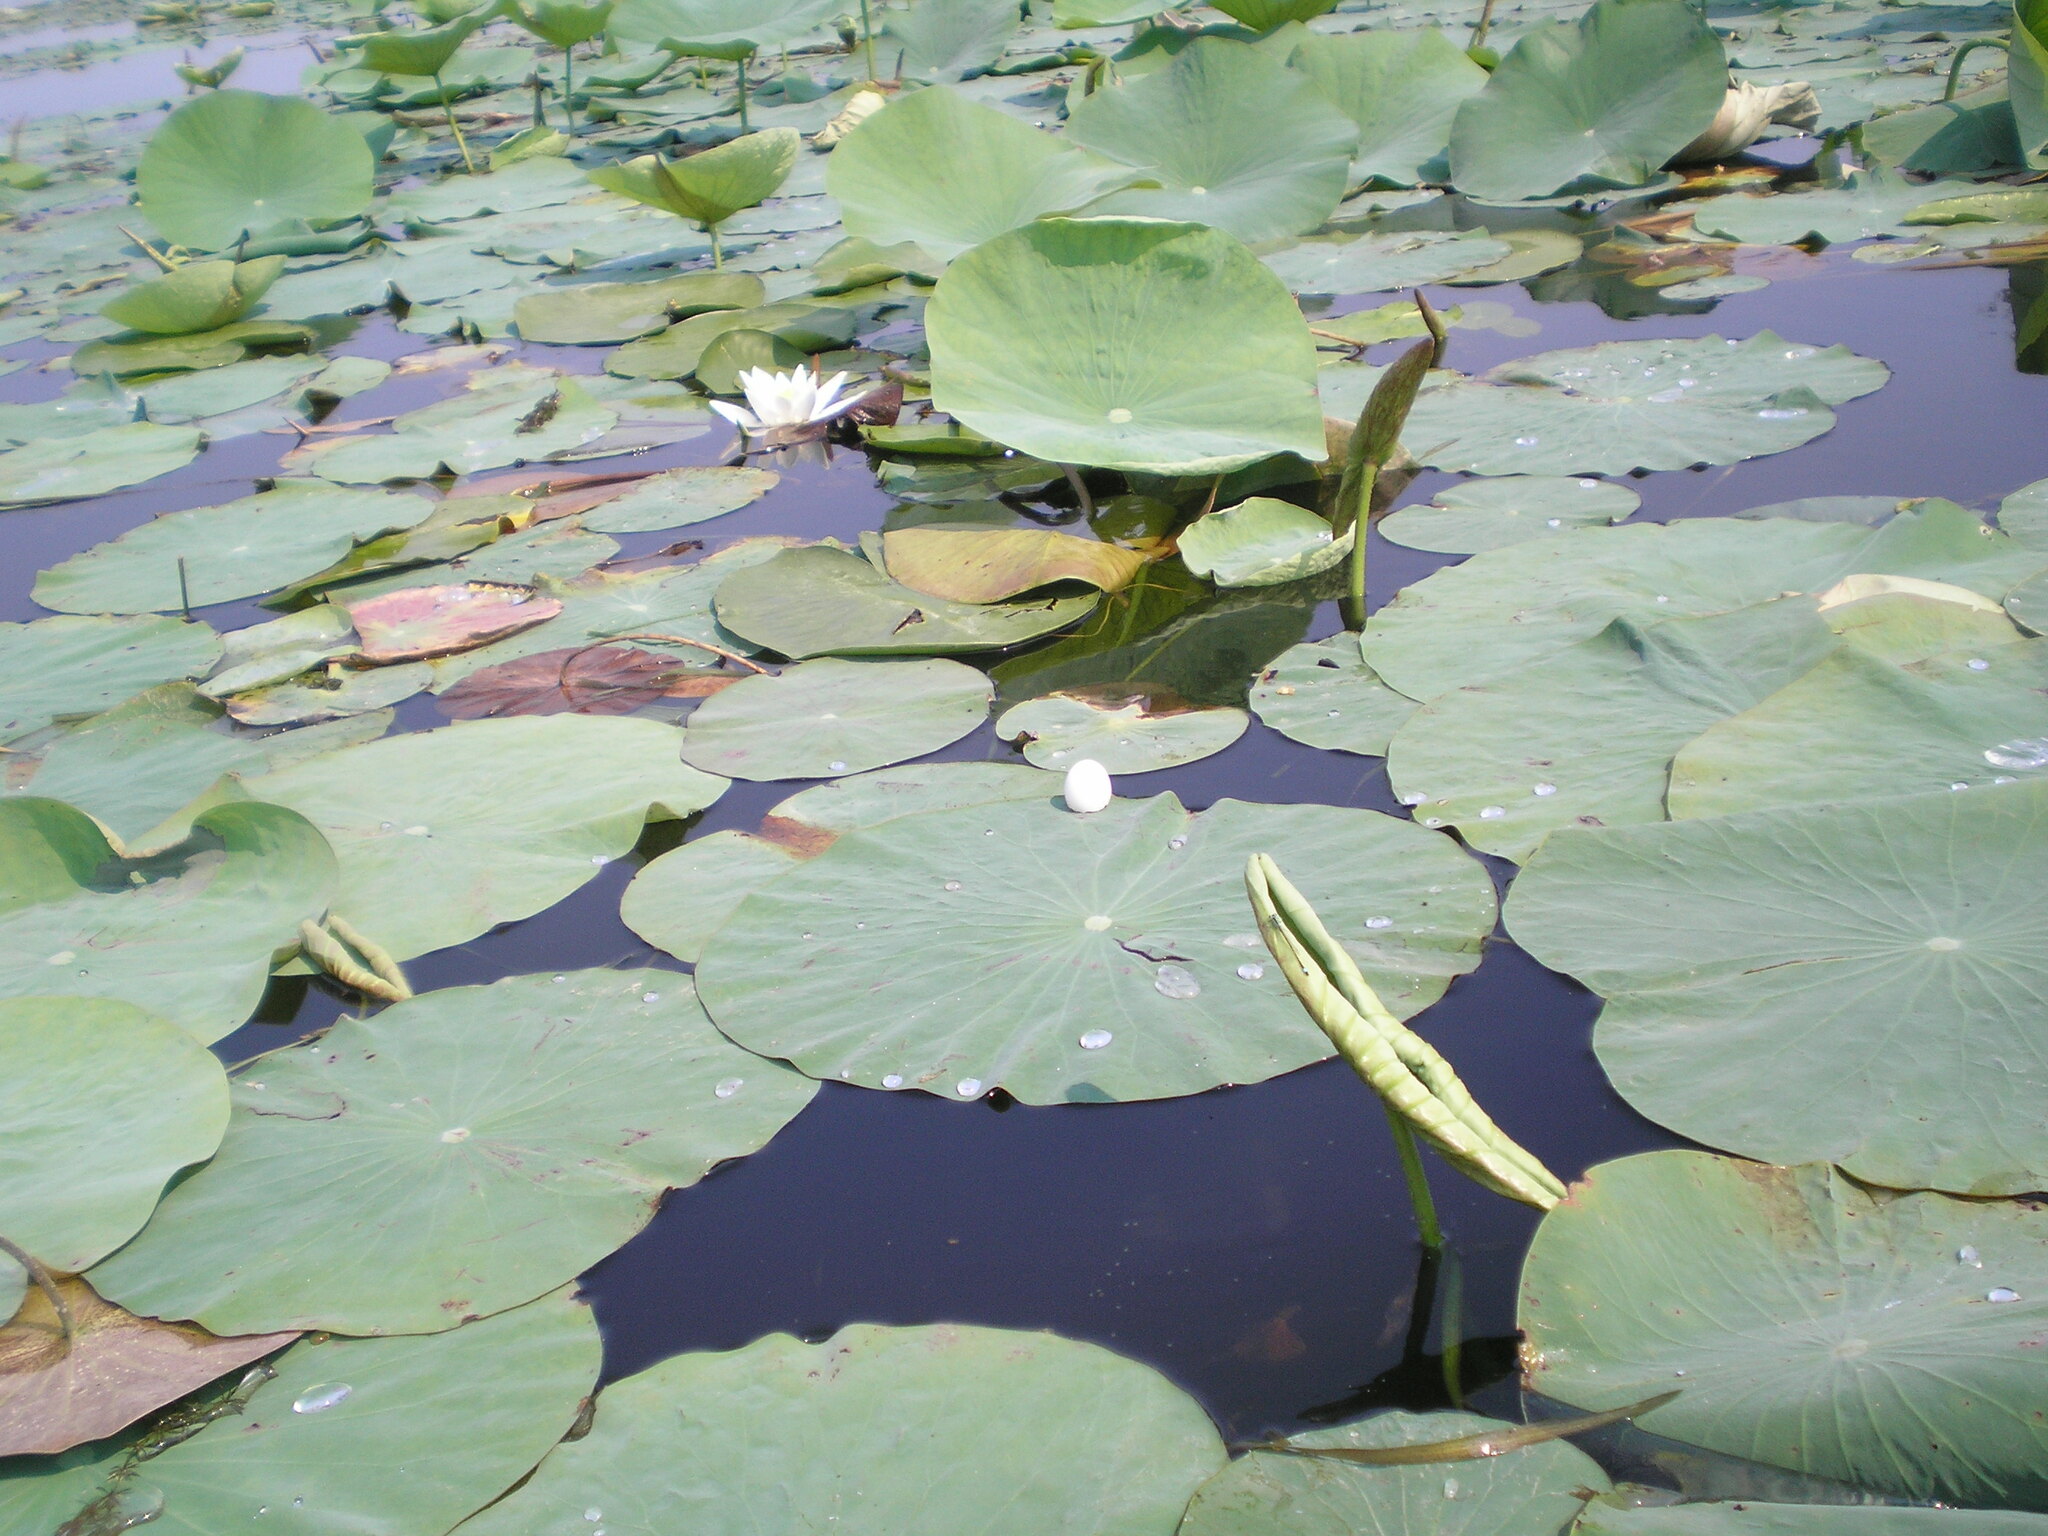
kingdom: Plantae
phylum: Tracheophyta
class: Magnoliopsida
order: Nymphaeales
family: Nymphaeaceae
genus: Nymphaea
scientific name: Nymphaea alba
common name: White water-lily
